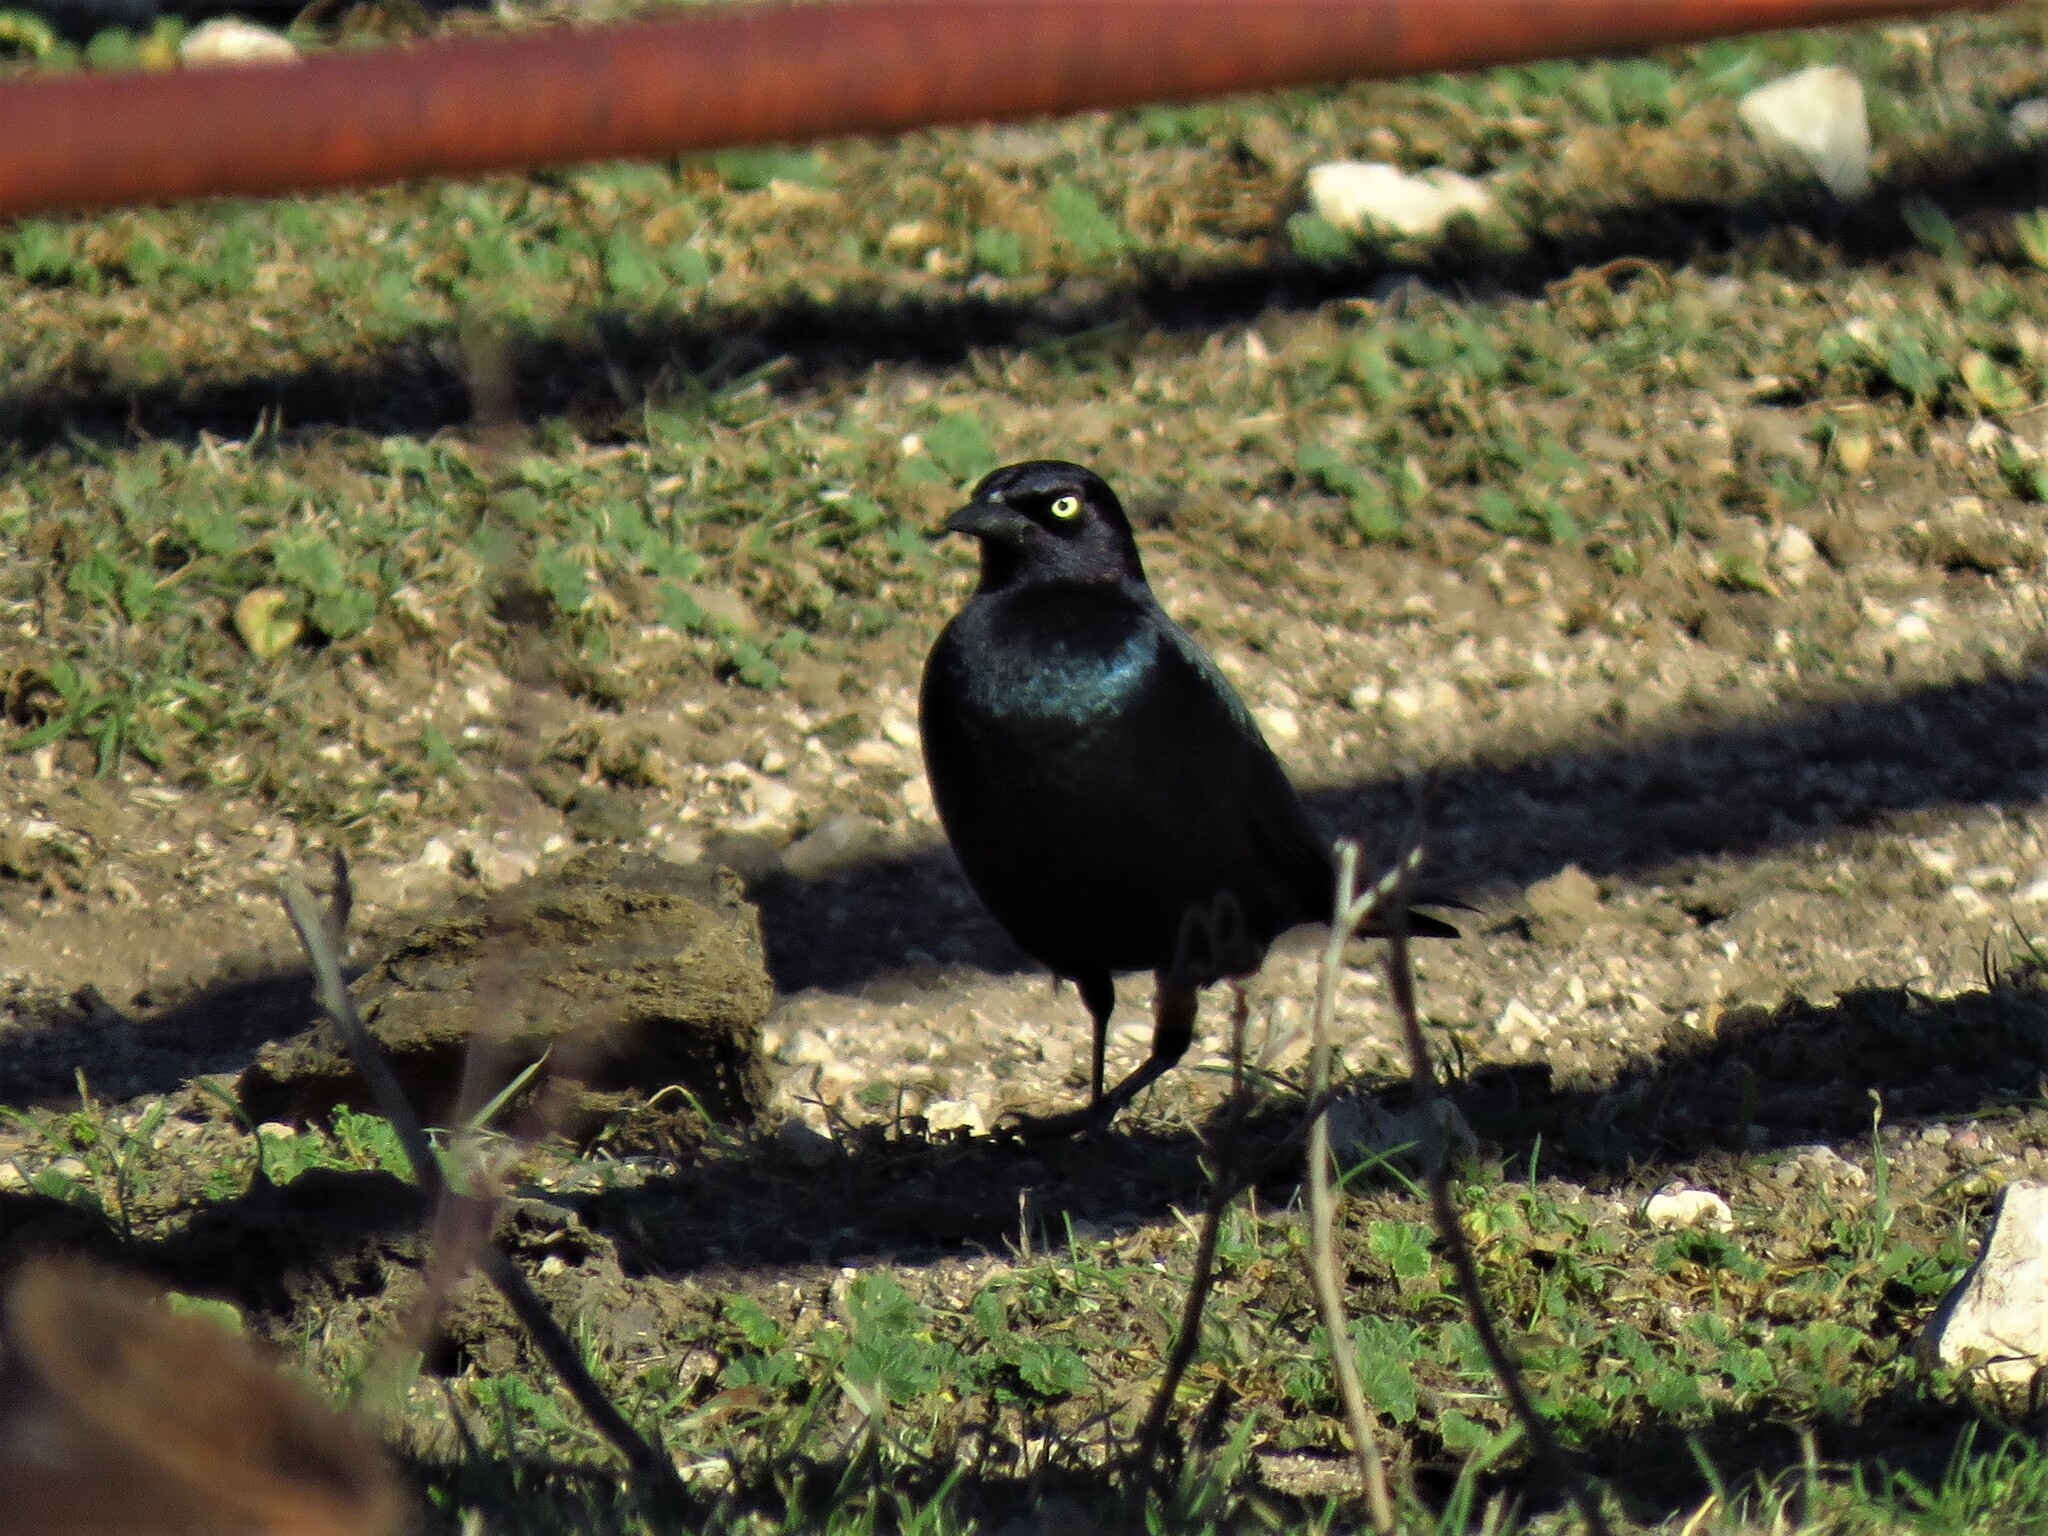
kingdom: Animalia
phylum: Chordata
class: Aves
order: Passeriformes
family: Icteridae
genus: Euphagus
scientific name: Euphagus cyanocephalus
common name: Brewer's blackbird
